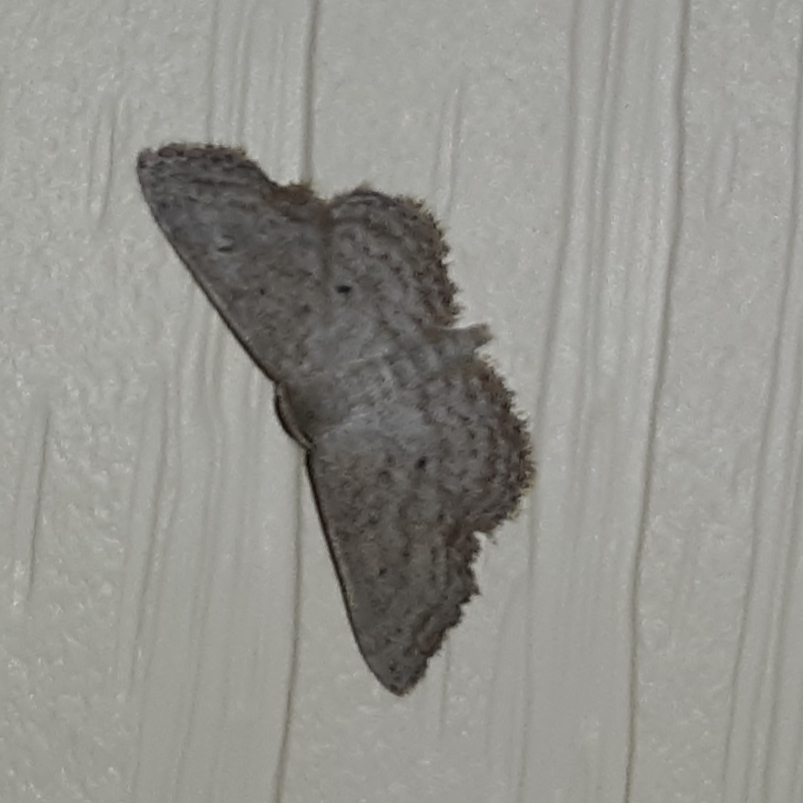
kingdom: Animalia
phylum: Arthropoda
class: Insecta
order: Lepidoptera
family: Geometridae
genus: Lobocleta
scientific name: Lobocleta ossularia
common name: Drab brown wave
